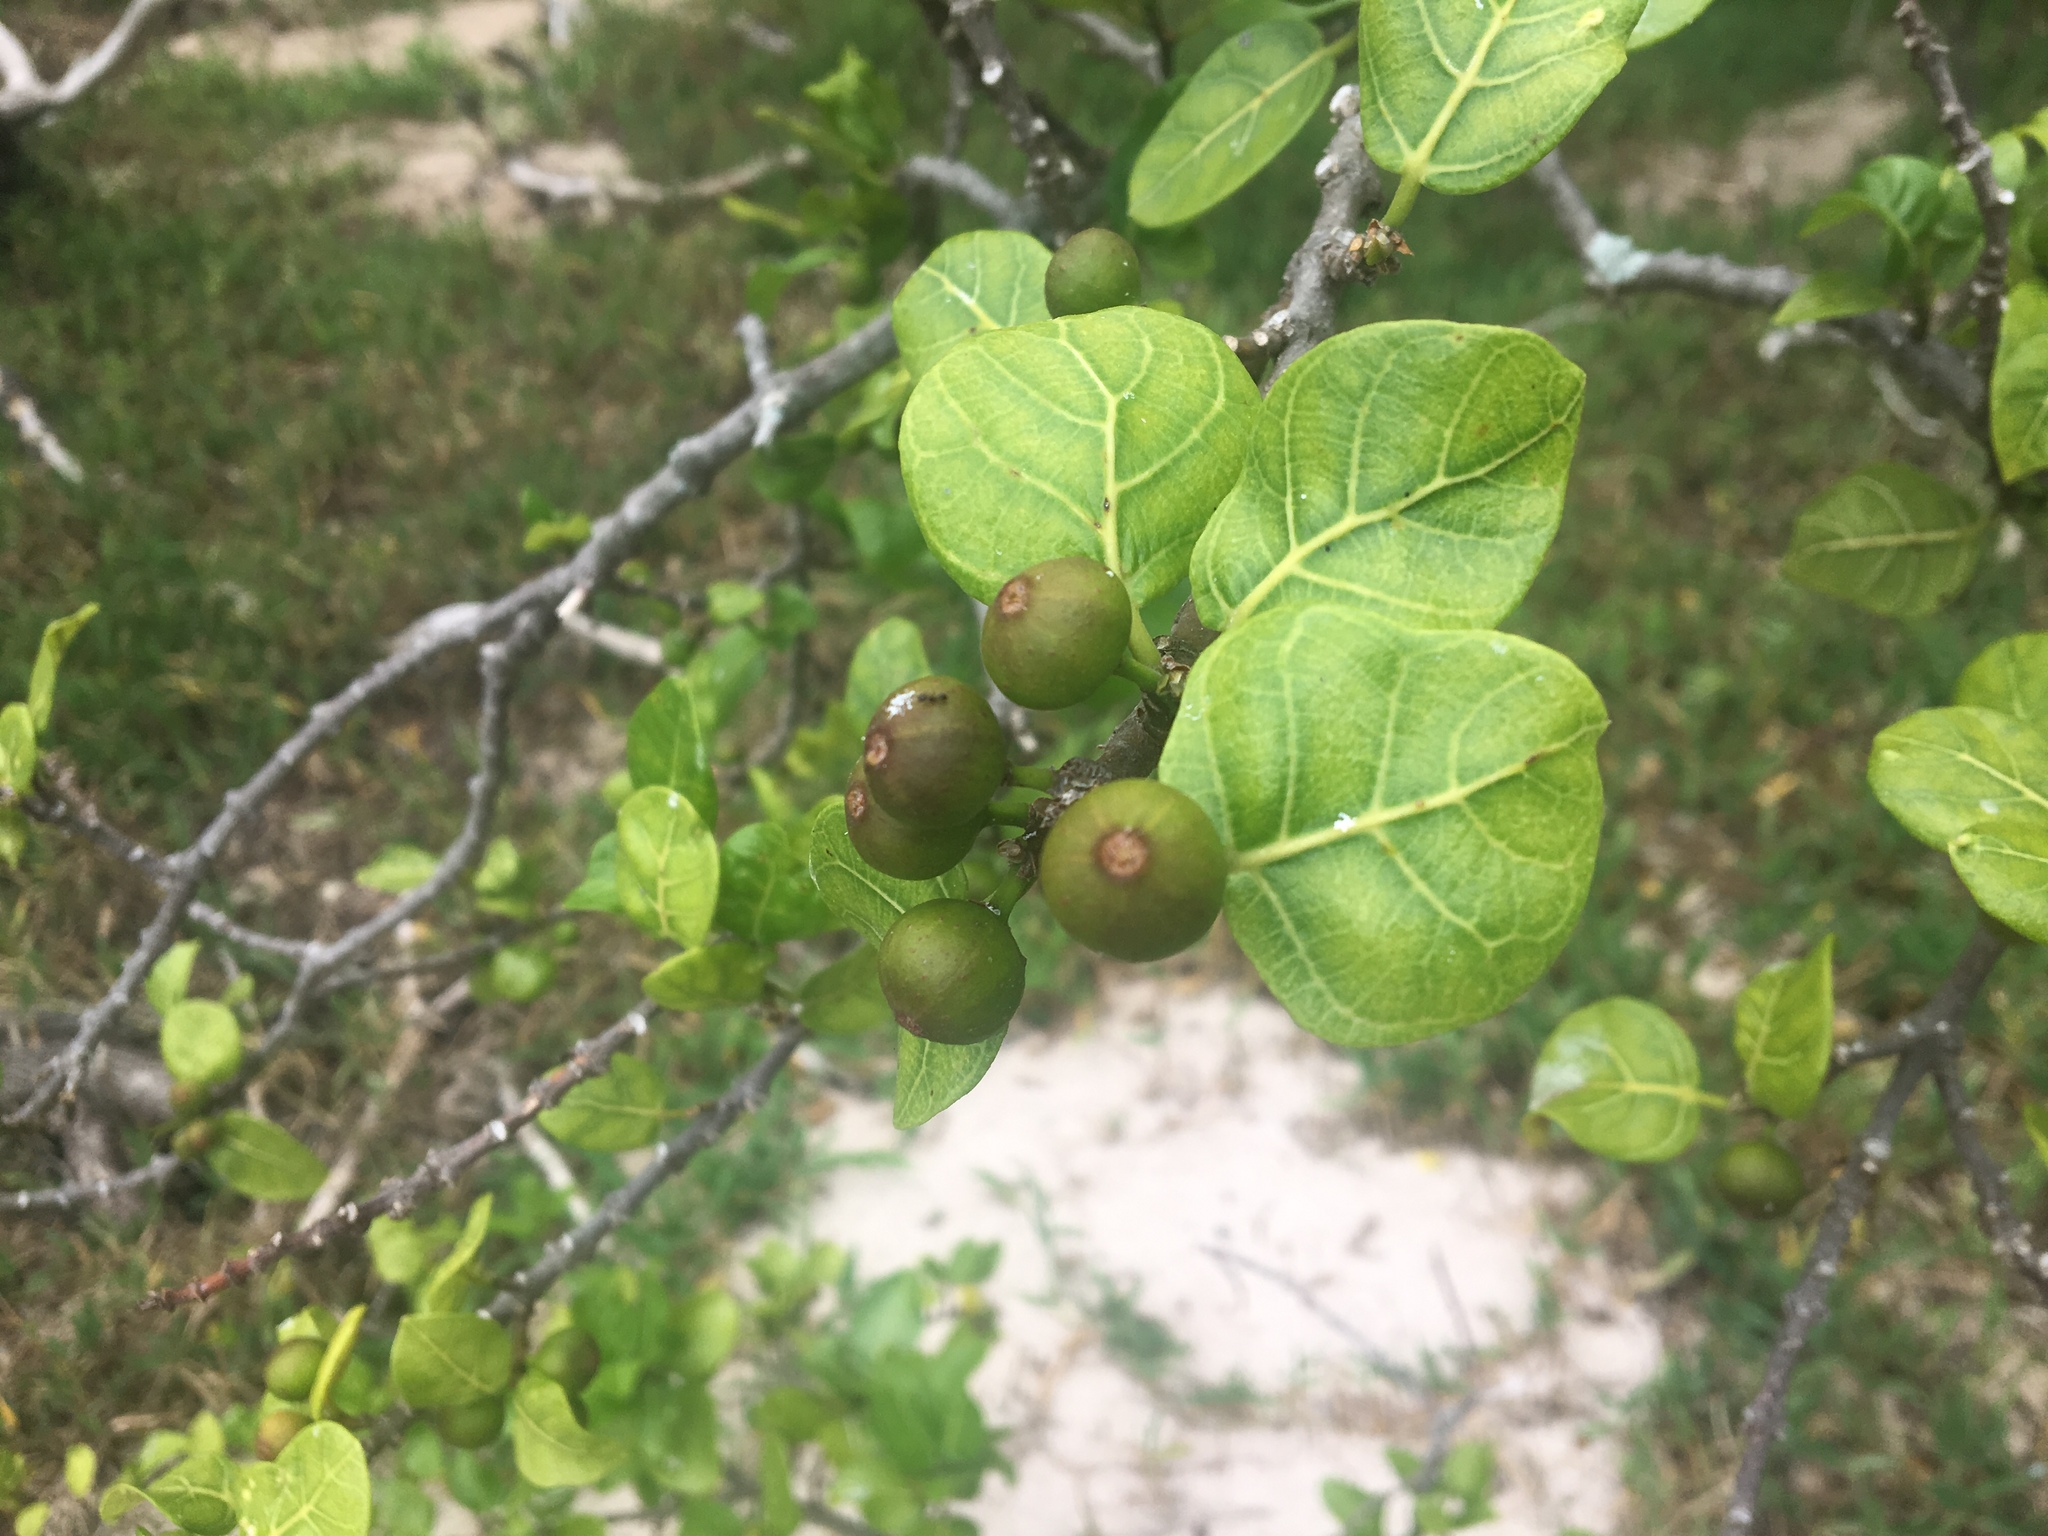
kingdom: Plantae
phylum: Tracheophyta
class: Magnoliopsida
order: Rosales
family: Moraceae
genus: Ficus
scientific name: Ficus opposita
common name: Figwood
